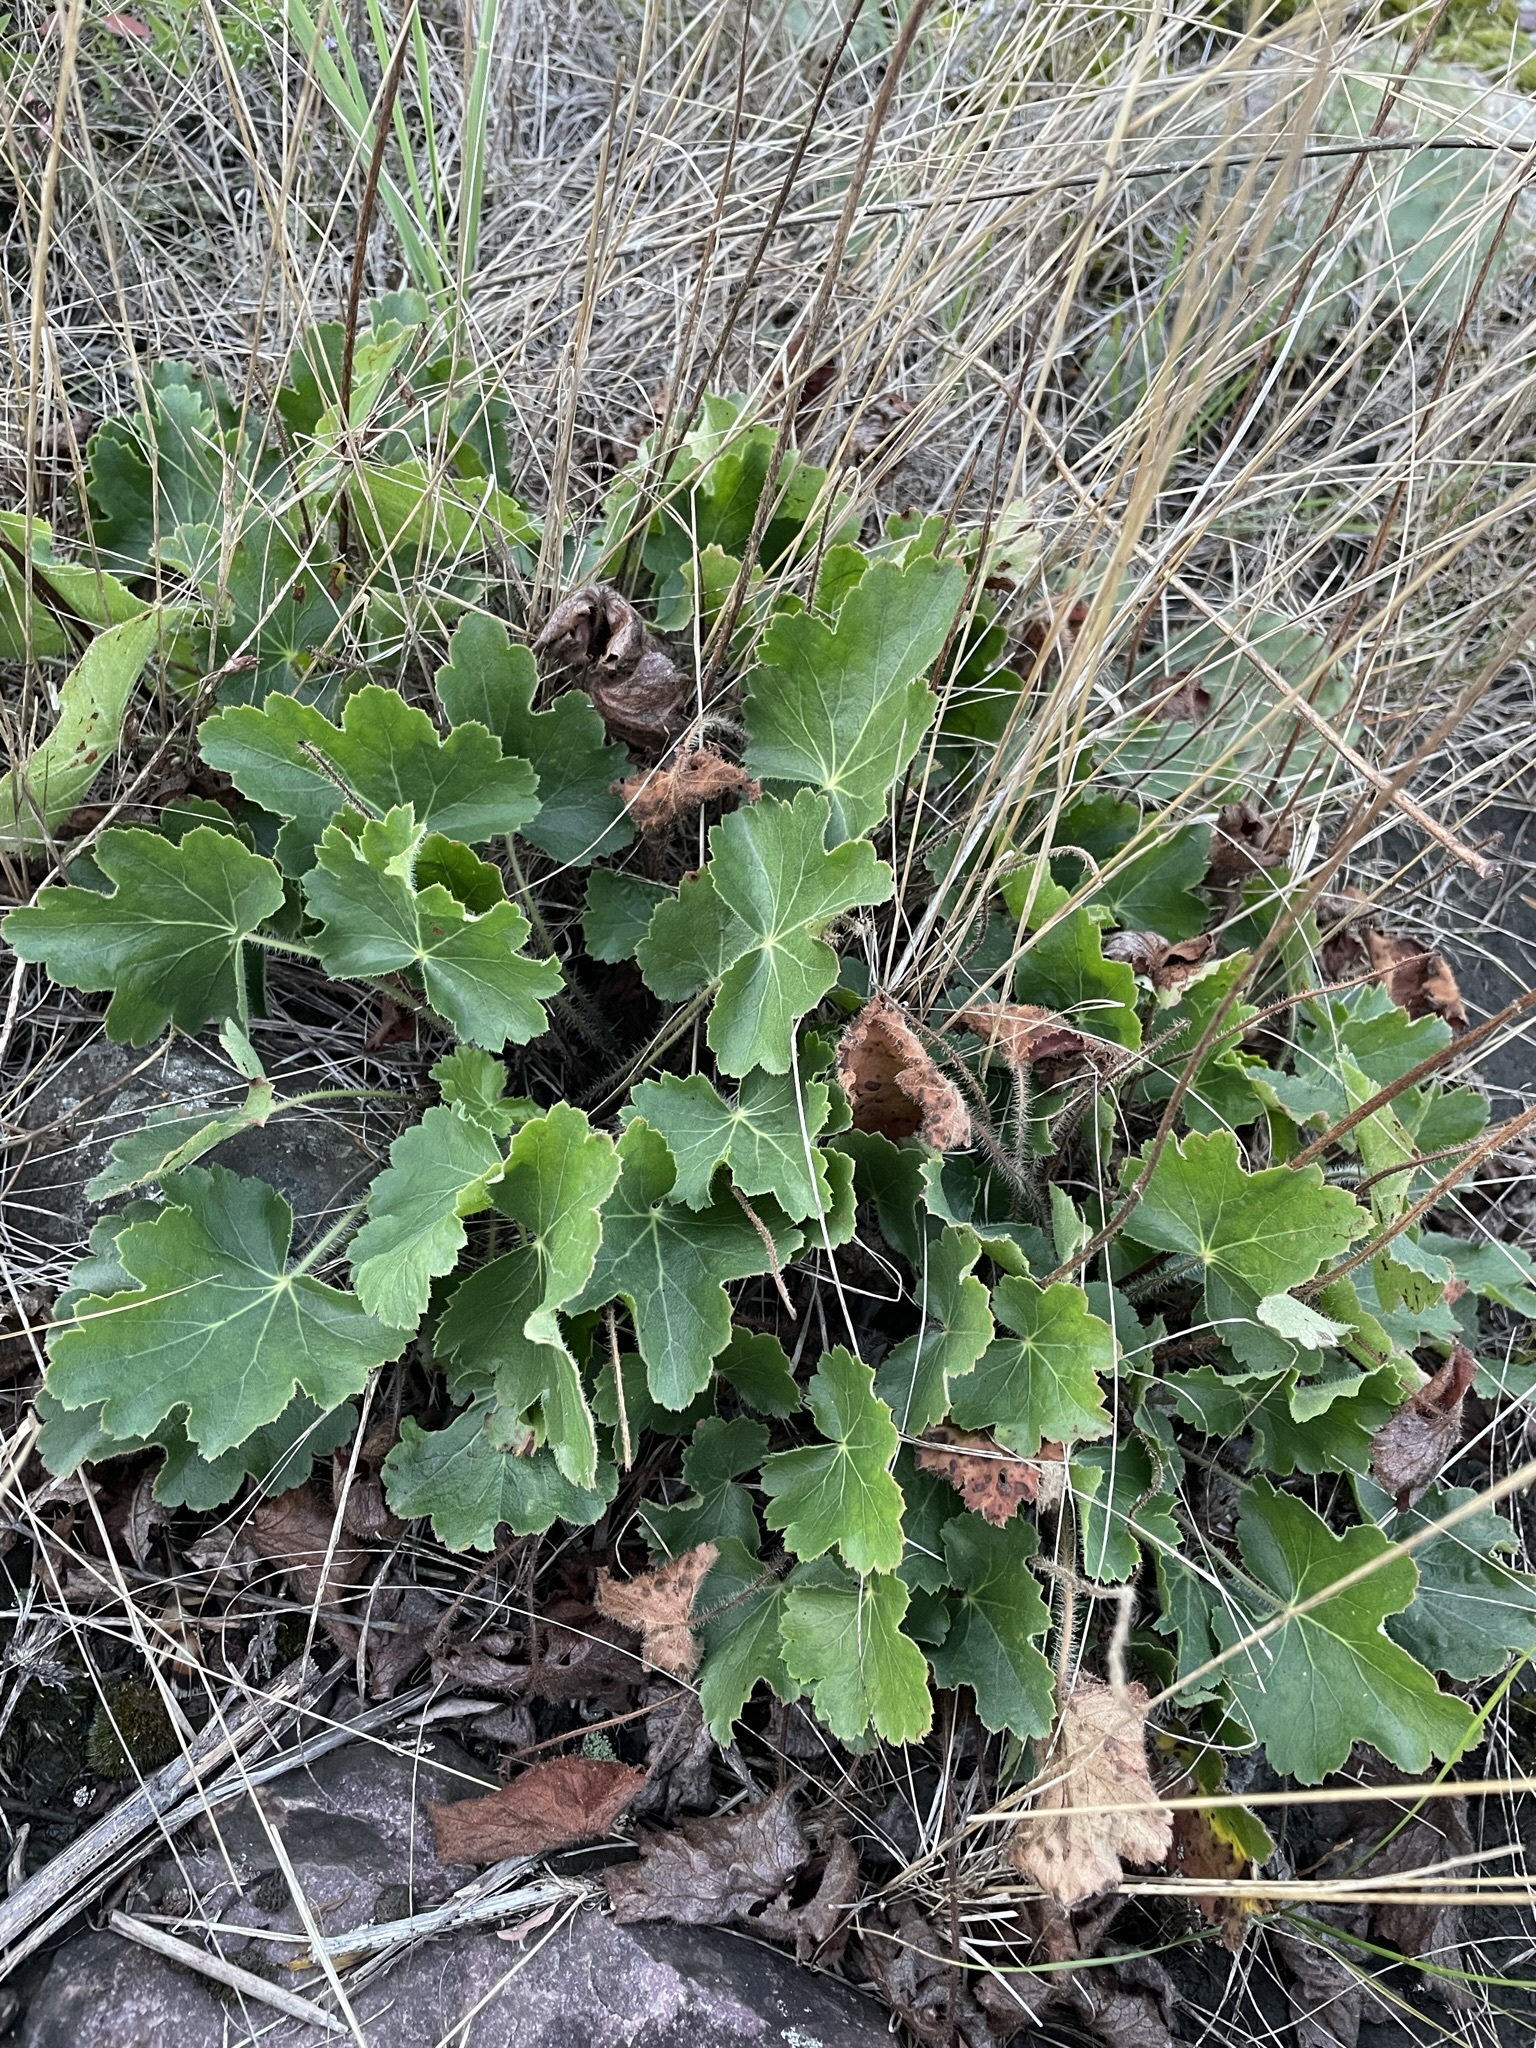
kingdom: Plantae
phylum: Tracheophyta
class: Magnoliopsida
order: Saxifragales
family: Saxifragaceae
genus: Heuchera
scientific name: Heuchera richardsonii
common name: Richardson's alumroot
